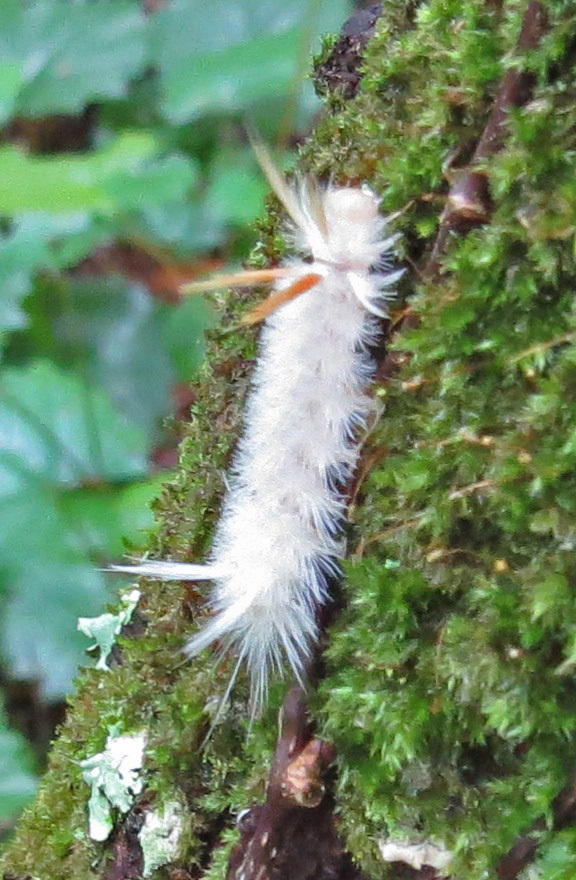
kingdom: Animalia
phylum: Arthropoda
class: Insecta
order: Lepidoptera
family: Erebidae
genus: Halysidota
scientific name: Halysidota harrisii
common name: Sycamore tussock moth
